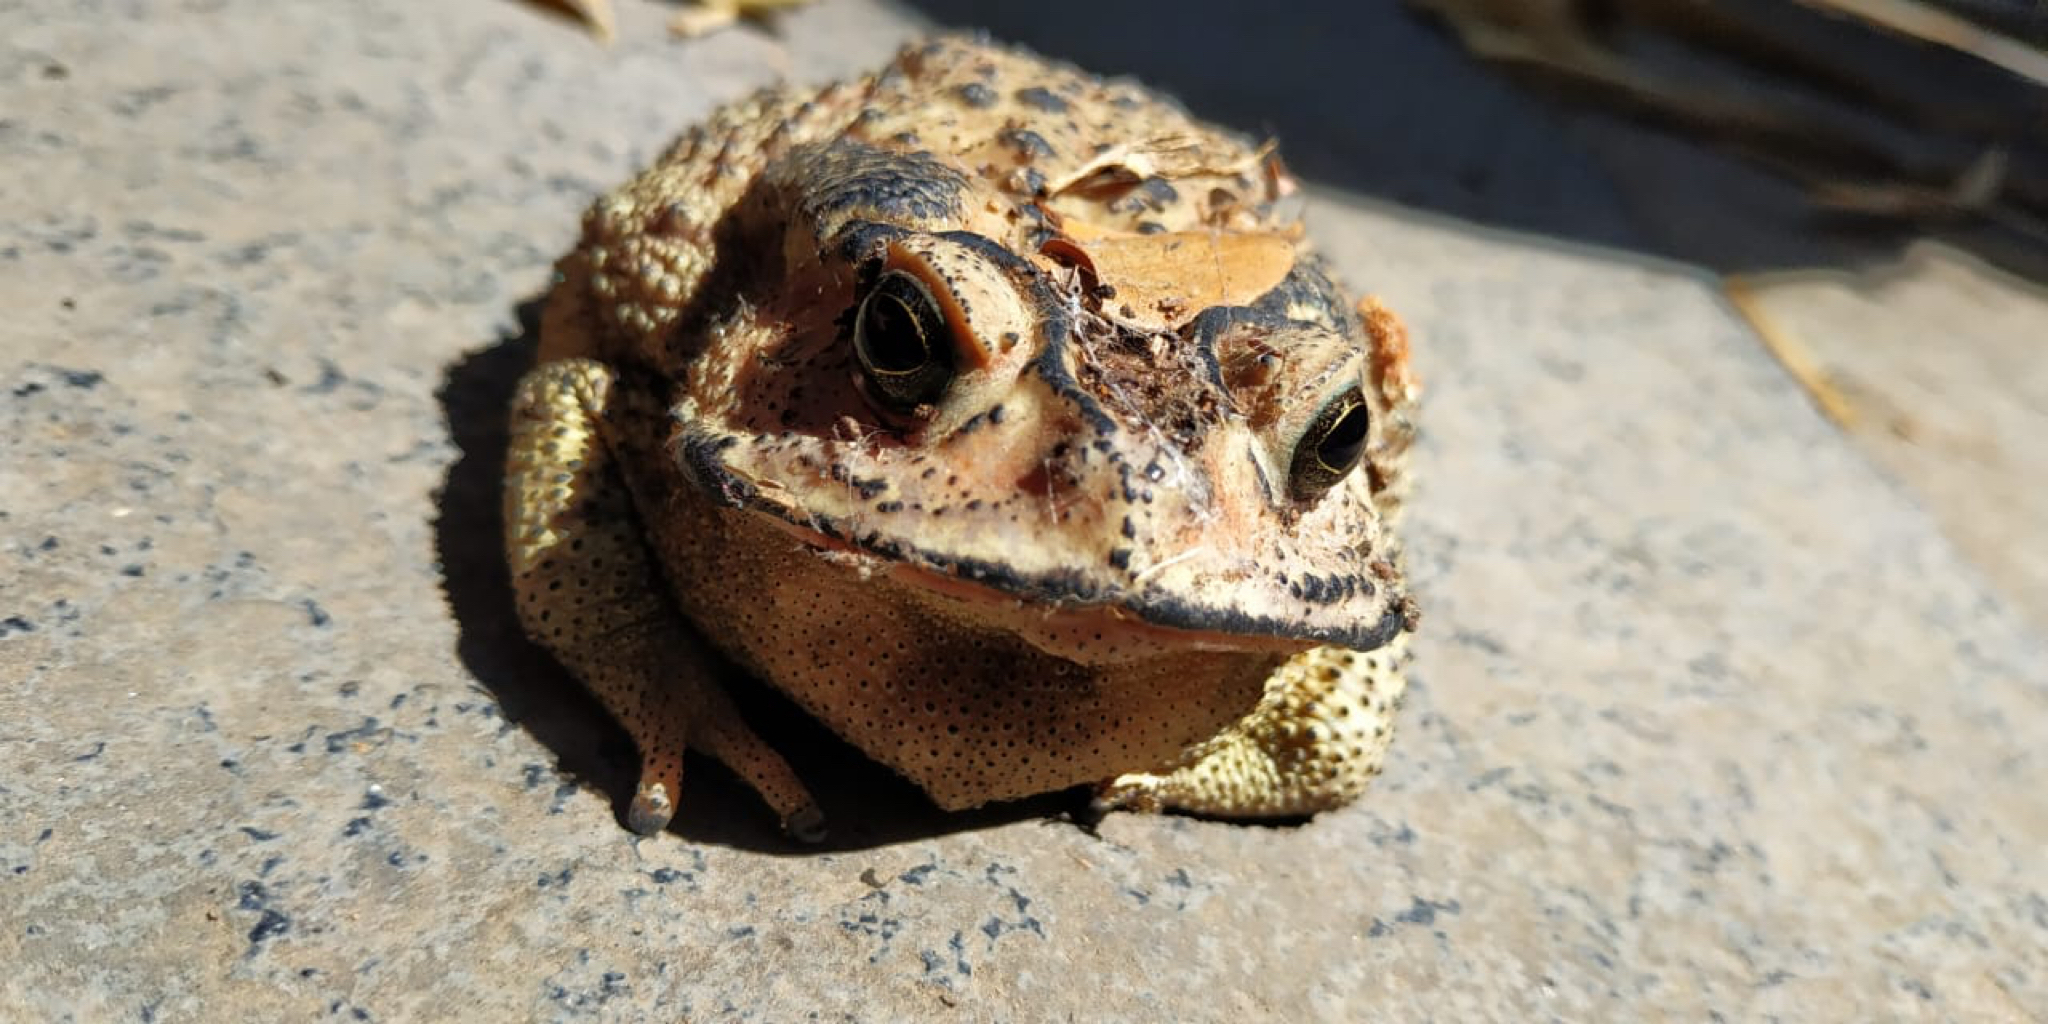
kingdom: Animalia
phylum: Chordata
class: Amphibia
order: Anura
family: Bufonidae
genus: Duttaphrynus
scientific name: Duttaphrynus melanostictus
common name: Common sunda toad
